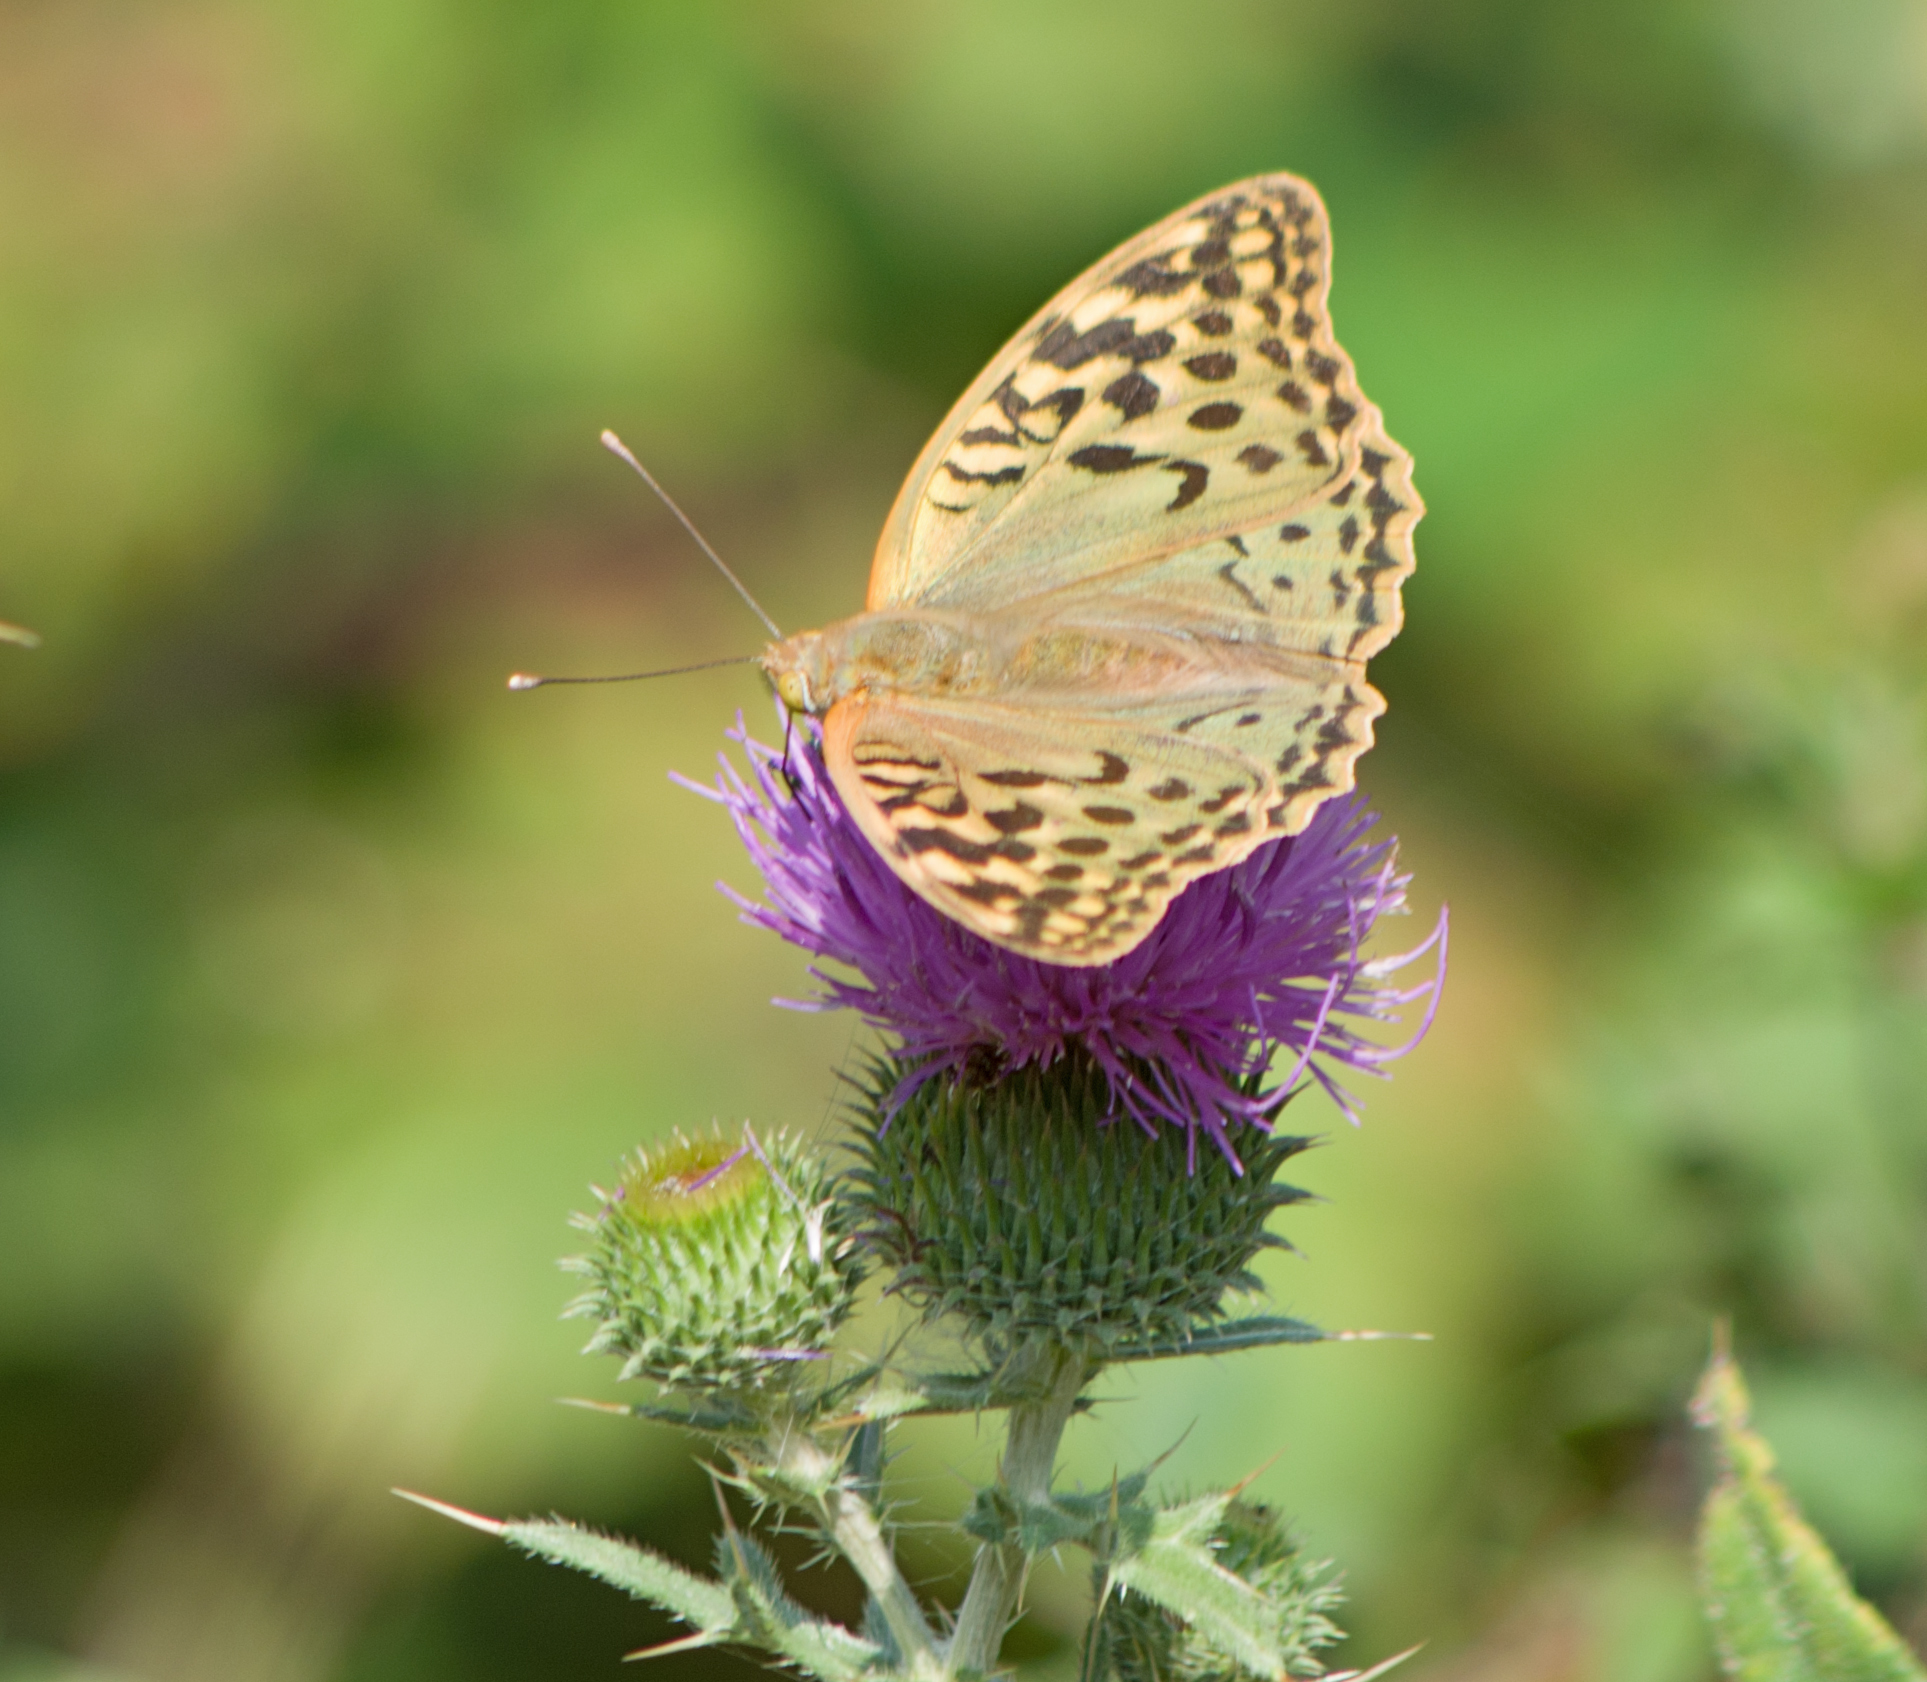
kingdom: Animalia
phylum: Arthropoda
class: Insecta
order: Lepidoptera
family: Nymphalidae
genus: Damora
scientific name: Damora pandora
